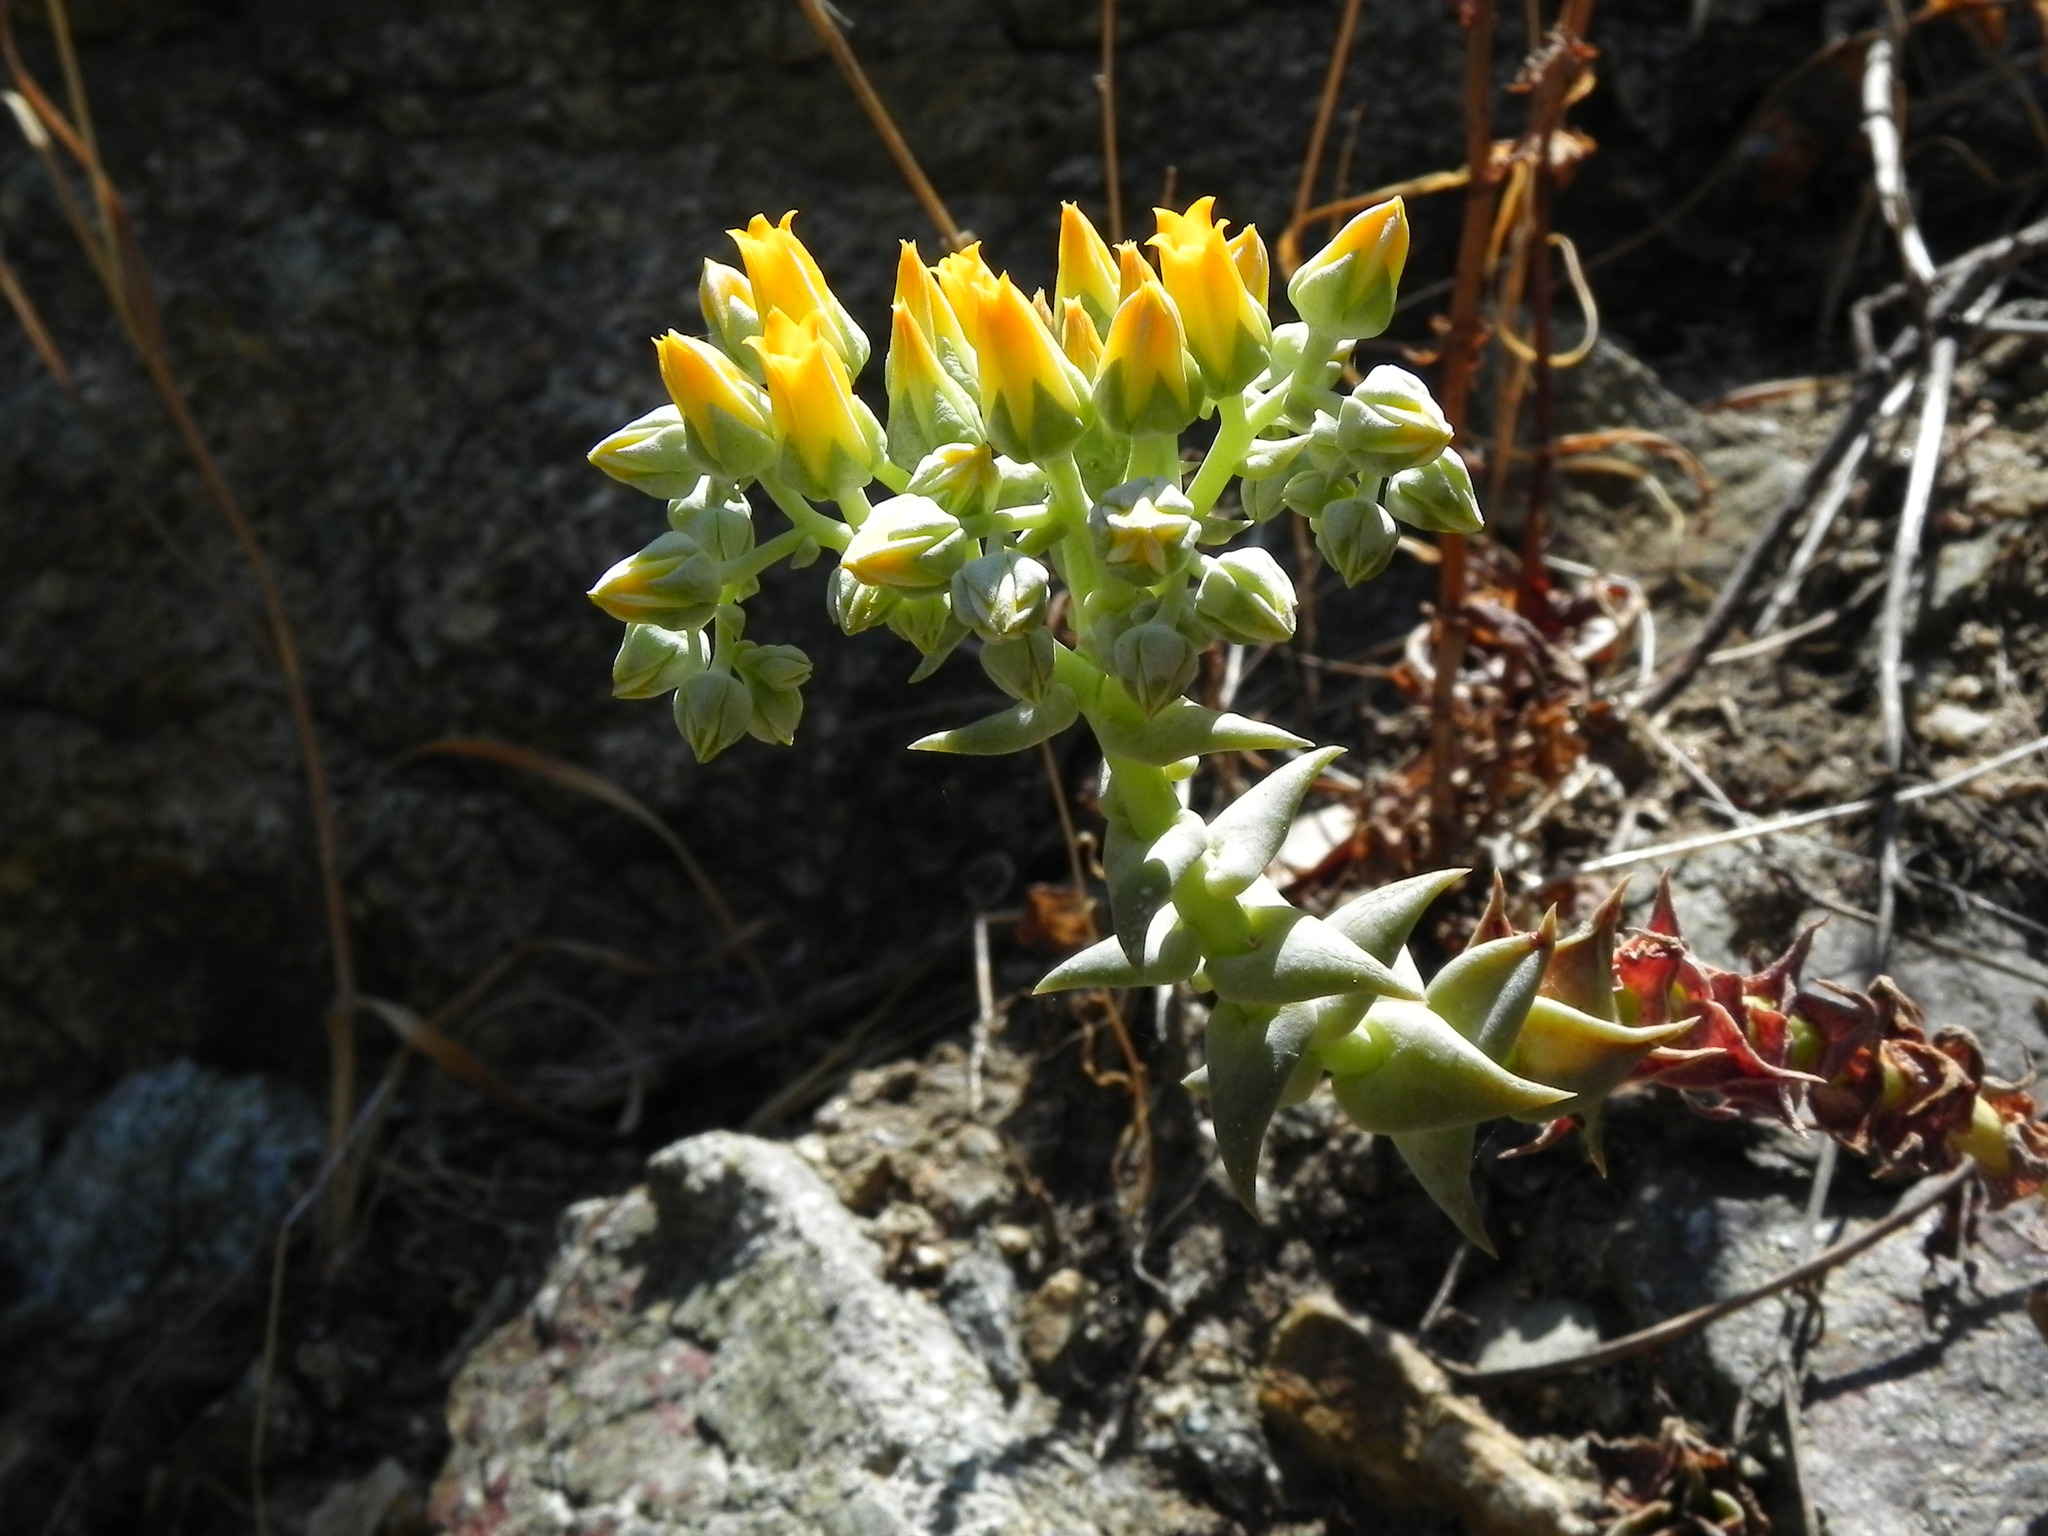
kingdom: Plantae
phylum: Tracheophyta
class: Magnoliopsida
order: Saxifragales
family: Crassulaceae
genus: Dudleya
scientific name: Dudleya cymosa
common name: Canyon dudleya
